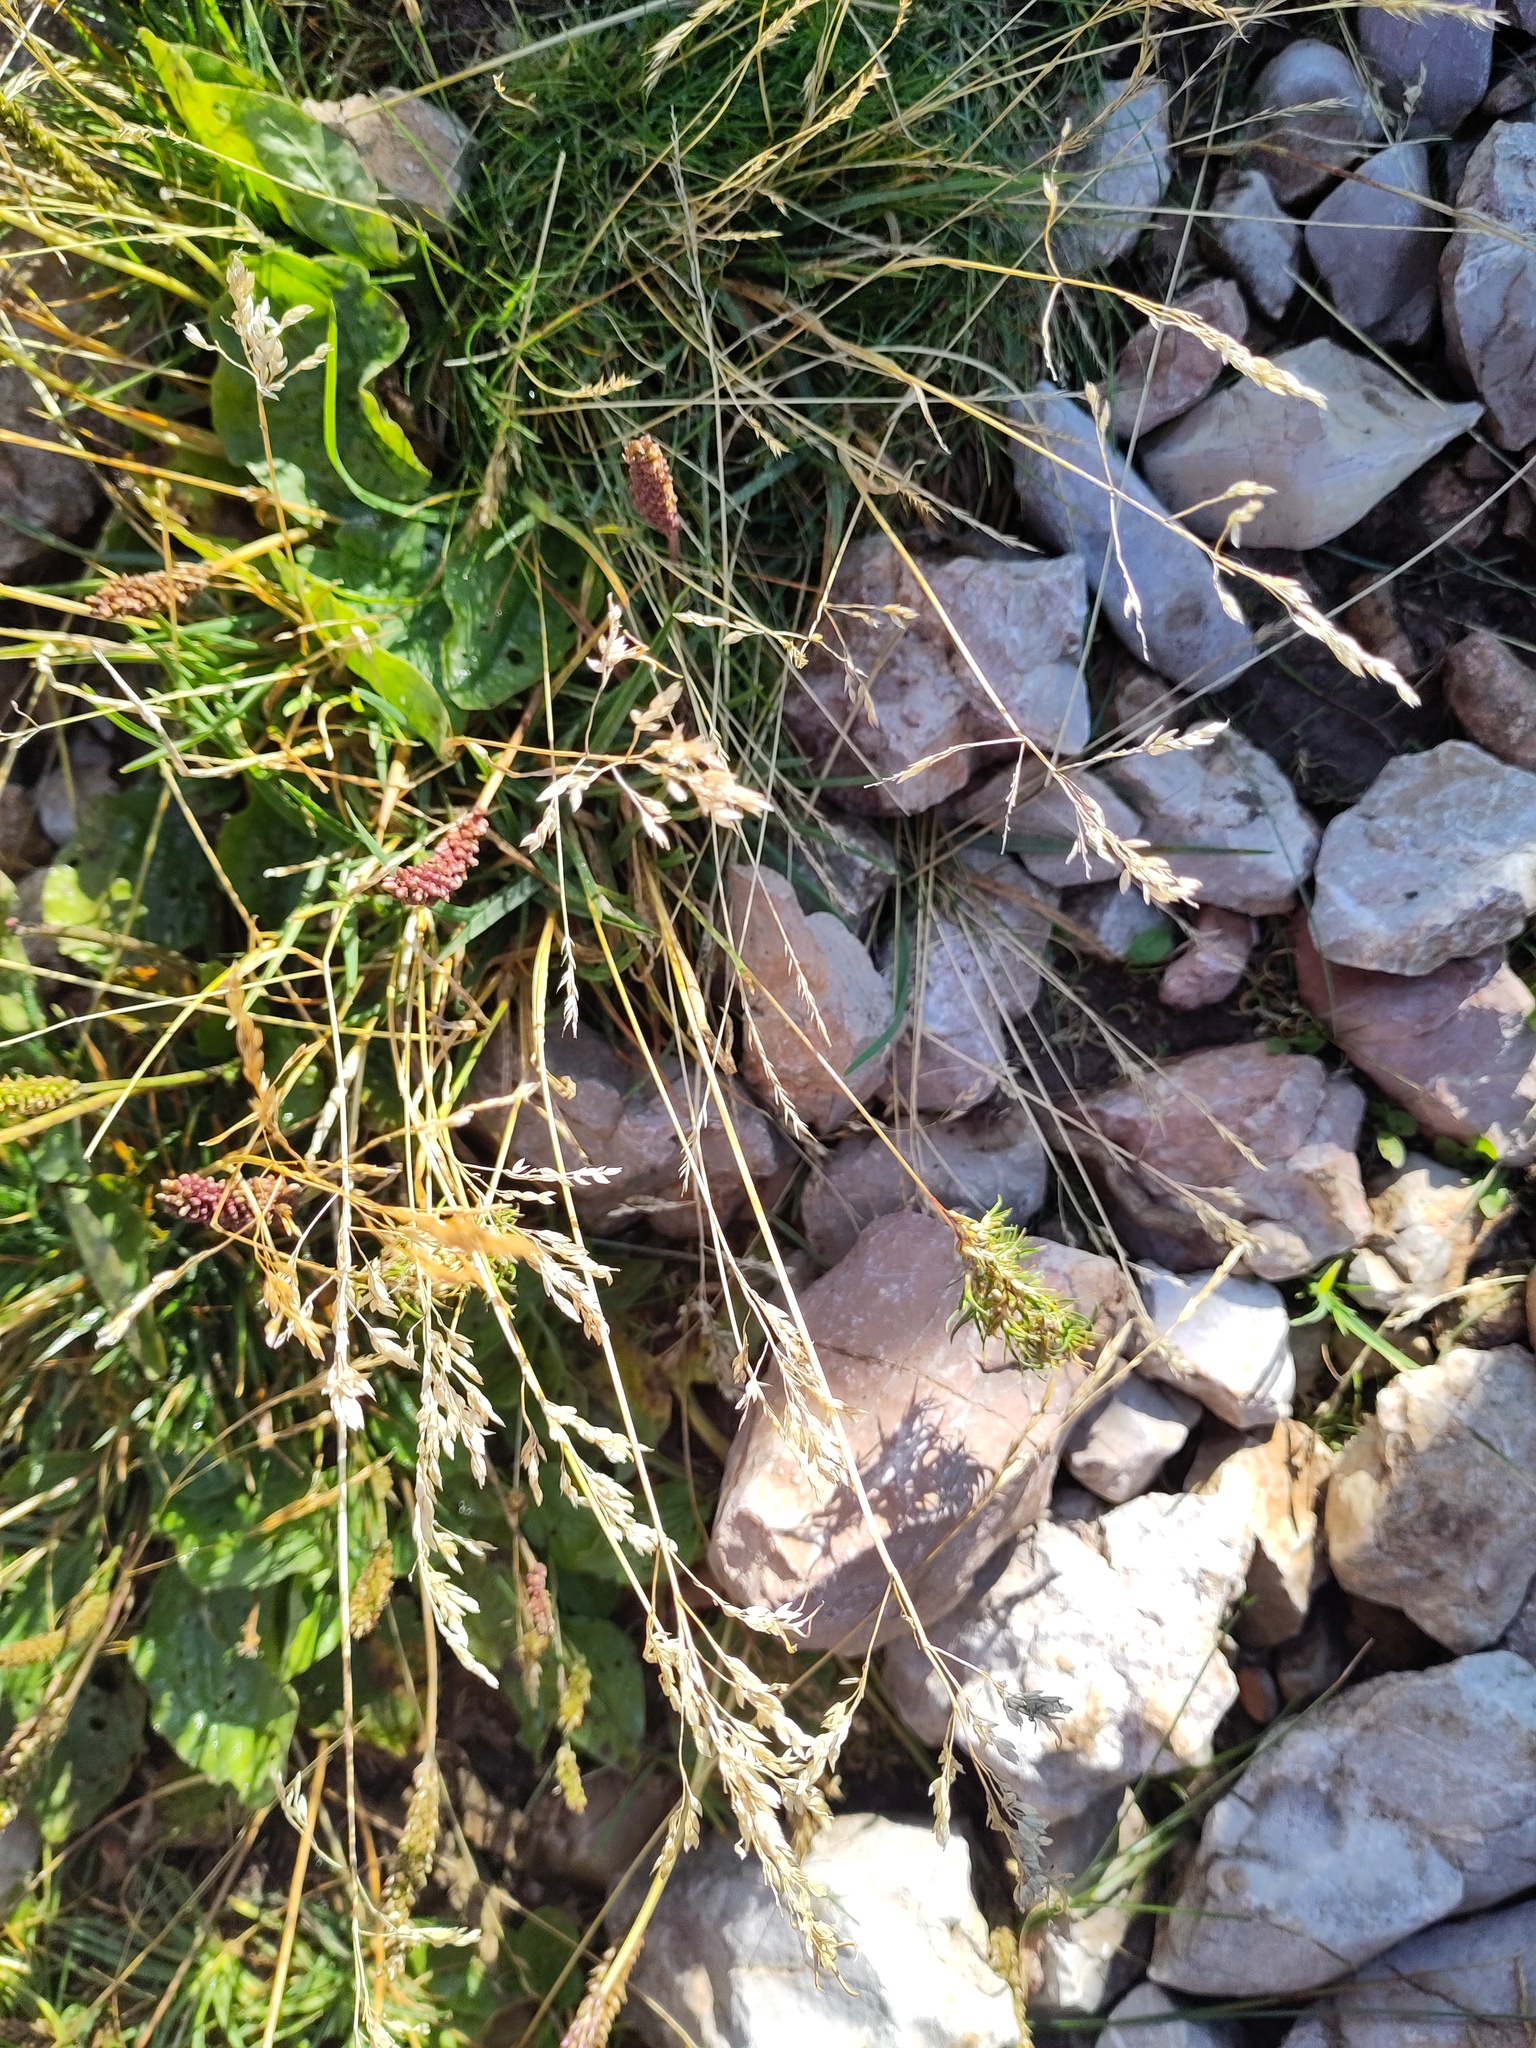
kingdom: Plantae
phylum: Tracheophyta
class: Liliopsida
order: Poales
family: Poaceae
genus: Poa
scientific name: Poa alpina
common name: Alpine bluegrass
